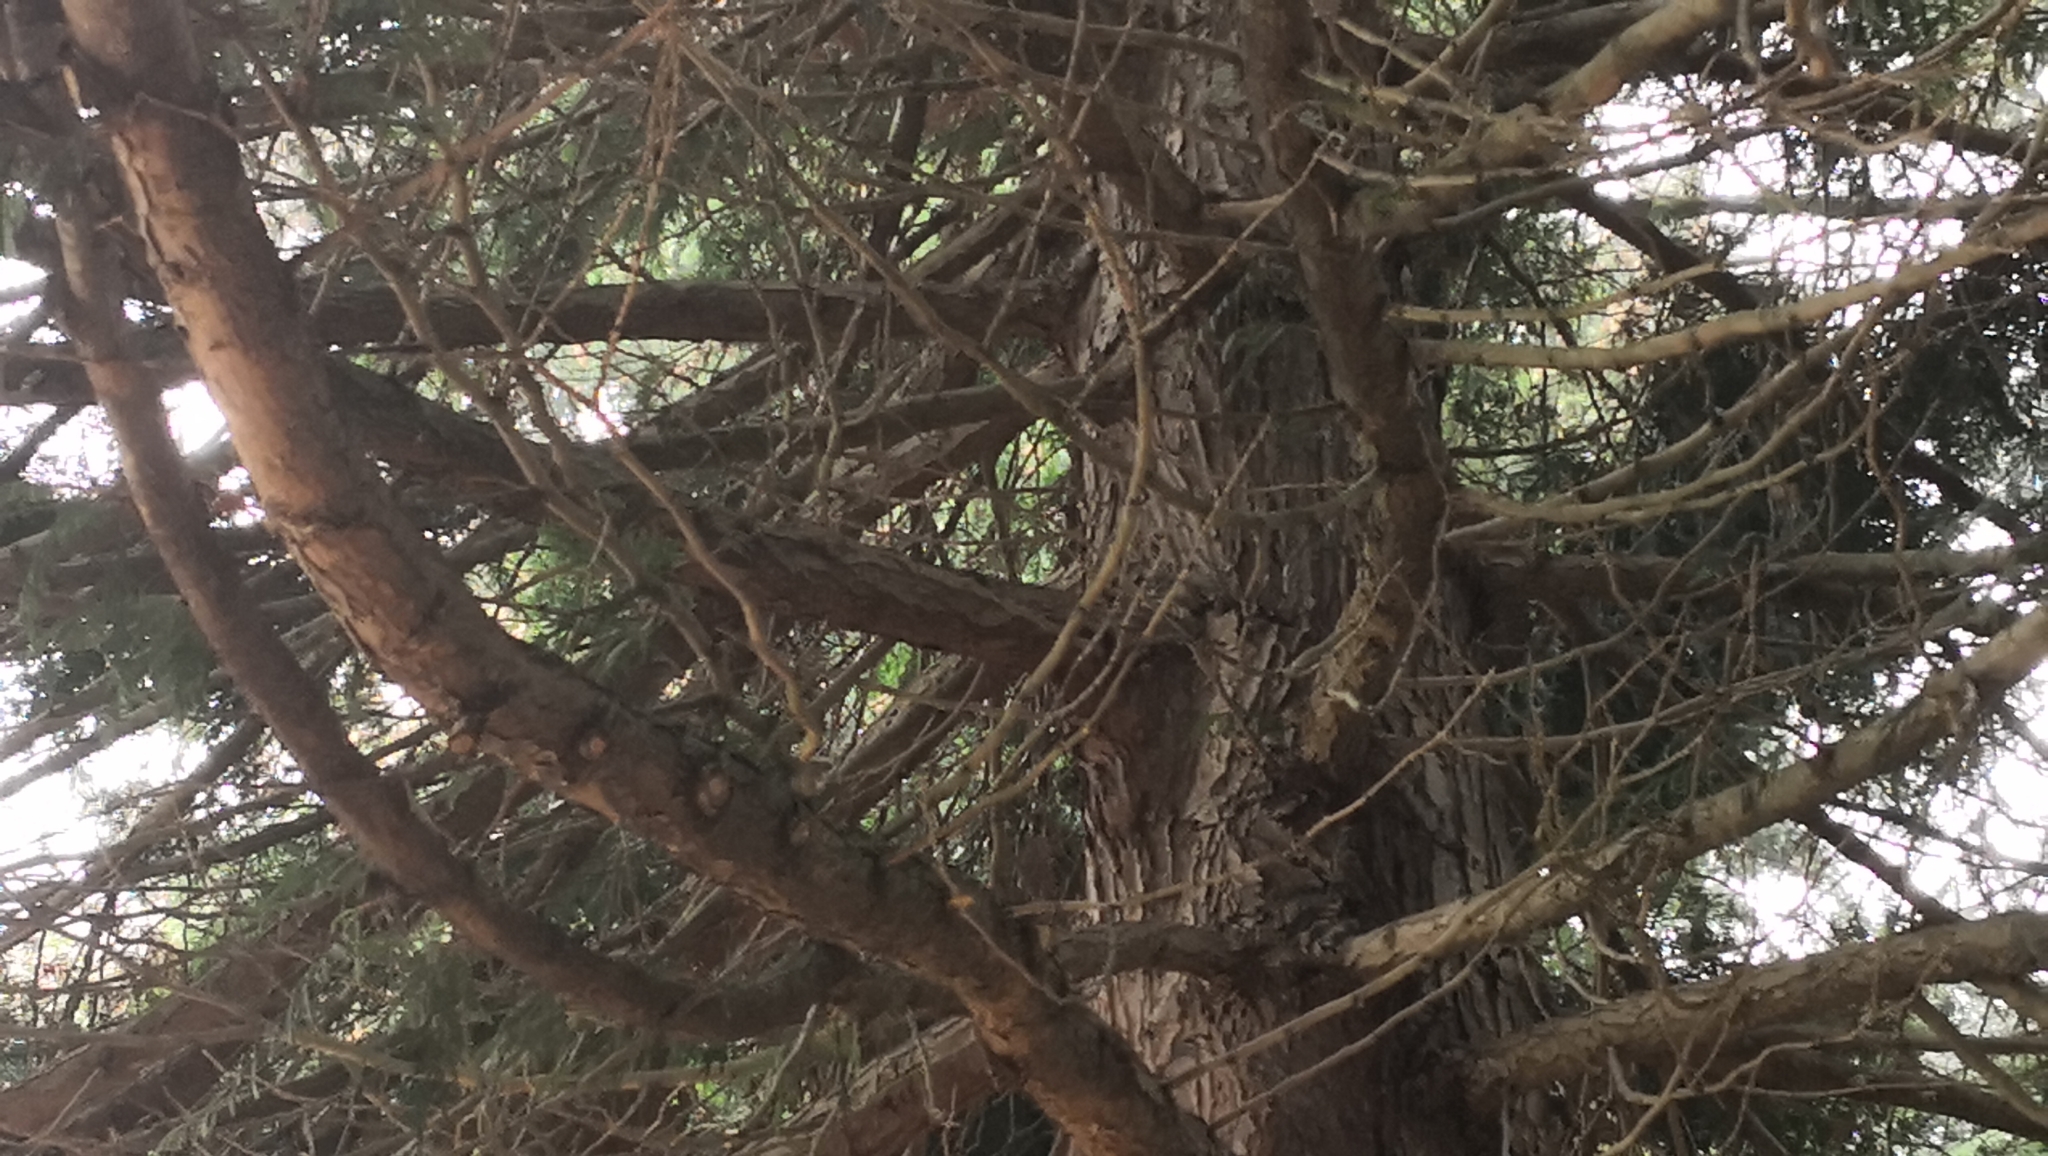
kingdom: Animalia
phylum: Chordata
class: Aves
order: Passeriformes
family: Certhiidae
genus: Certhia
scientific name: Certhia americana
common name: Brown creeper
